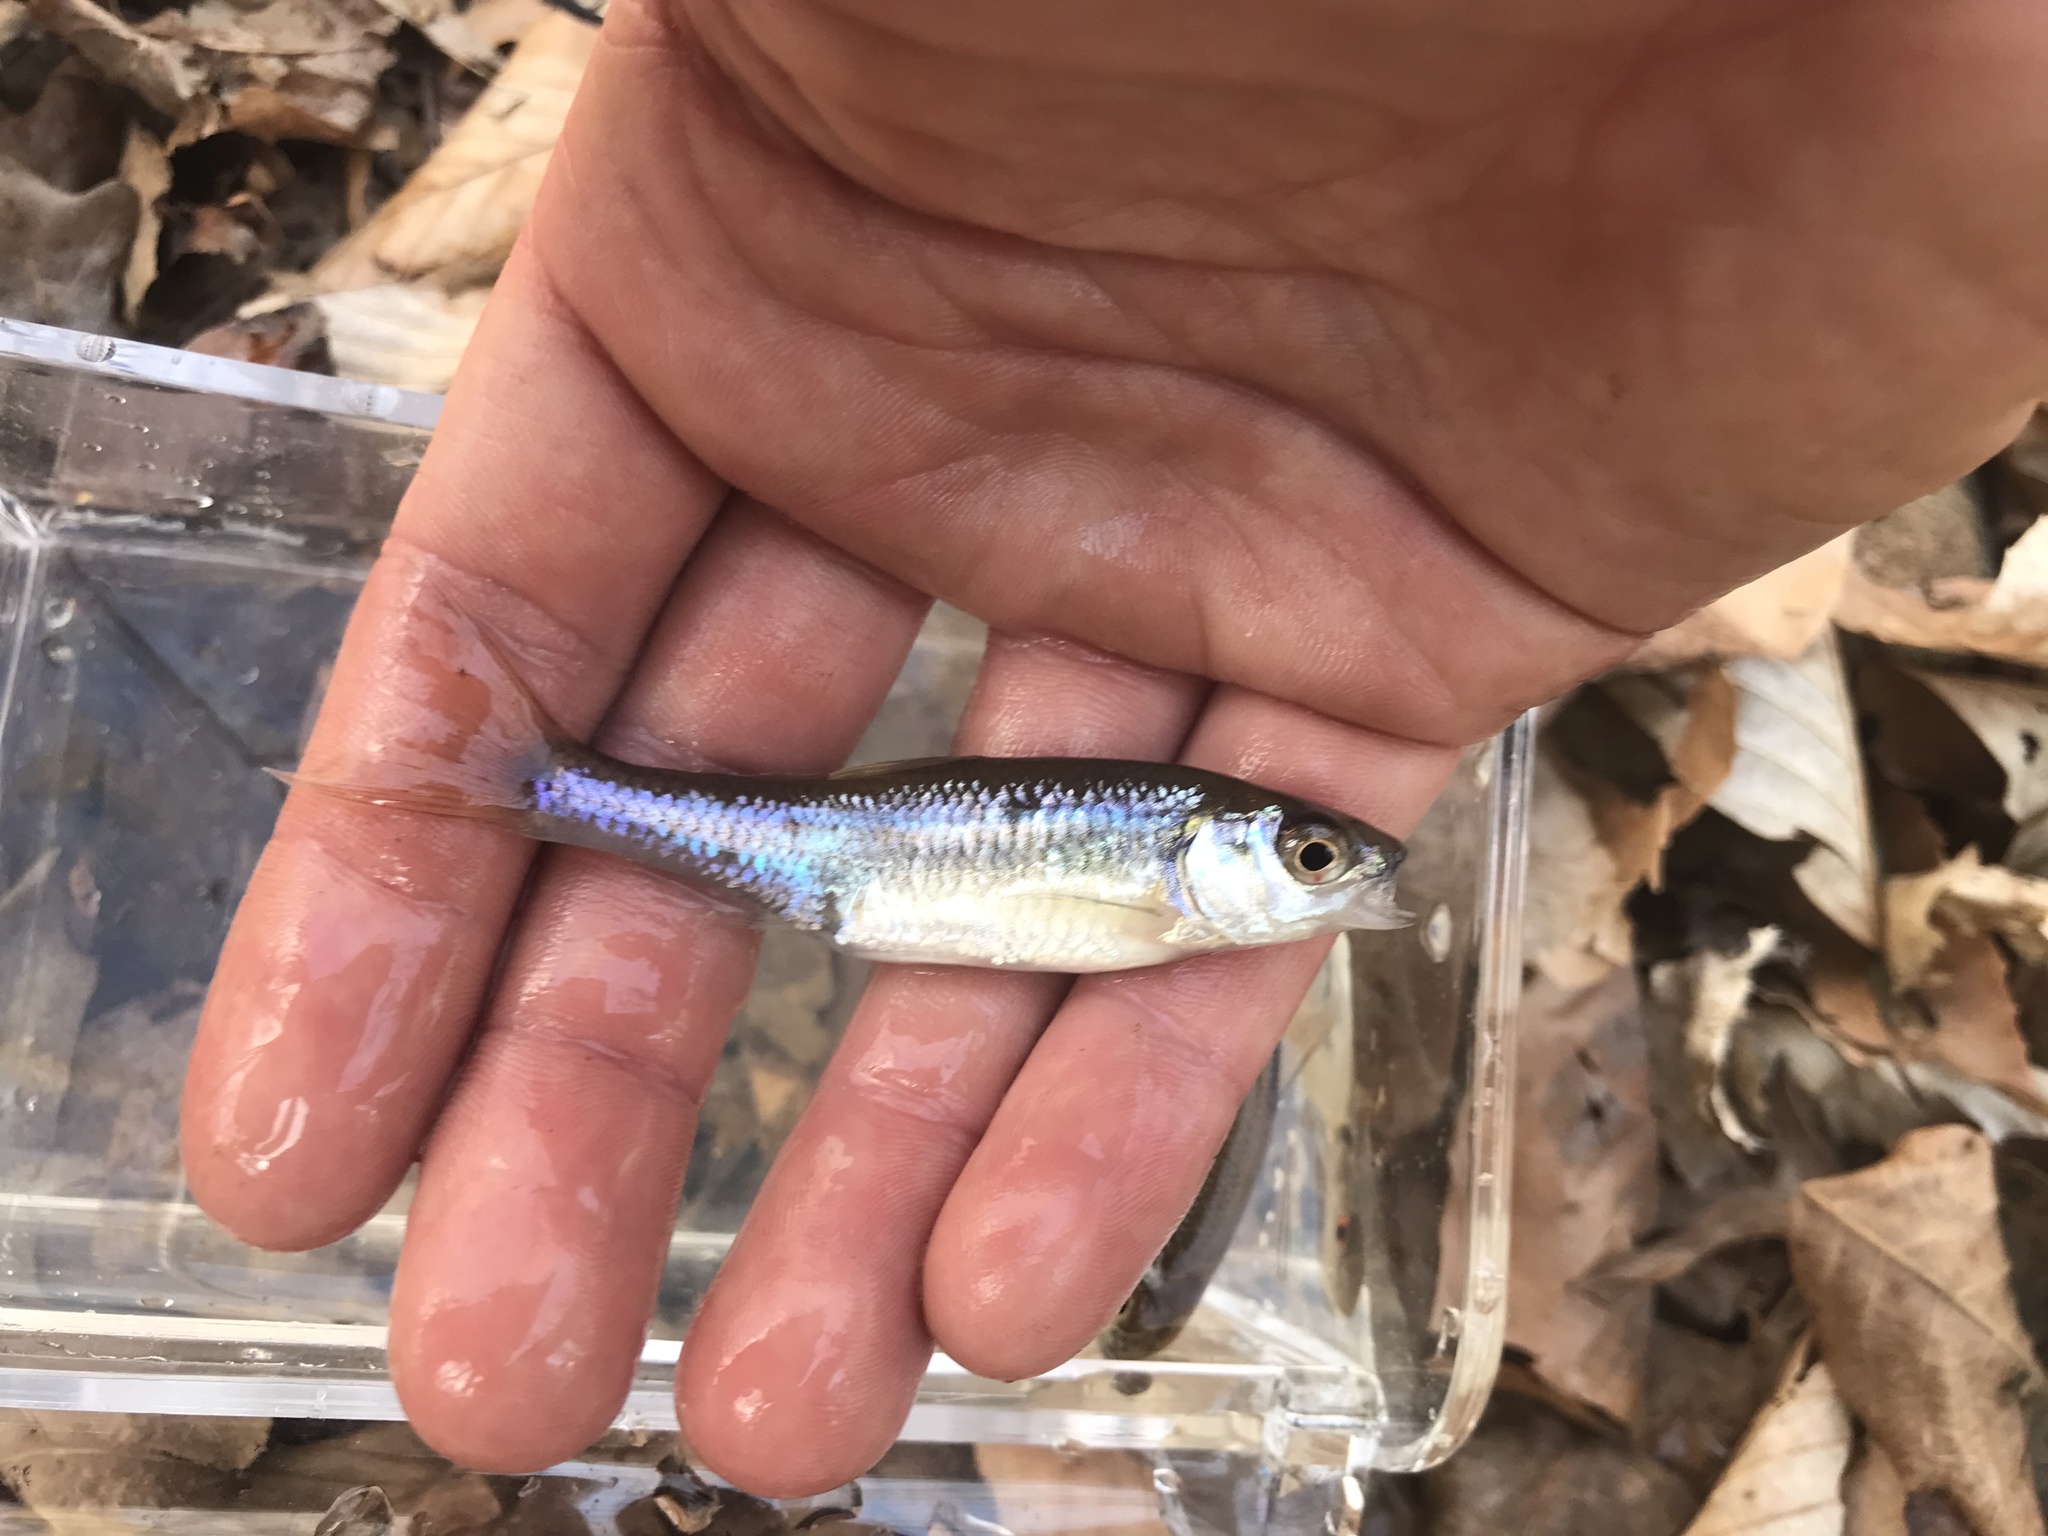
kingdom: Animalia
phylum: Chordata
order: Cypriniformes
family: Cyprinidae
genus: Luxilus
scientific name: Luxilus albeolus
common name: White shiner
